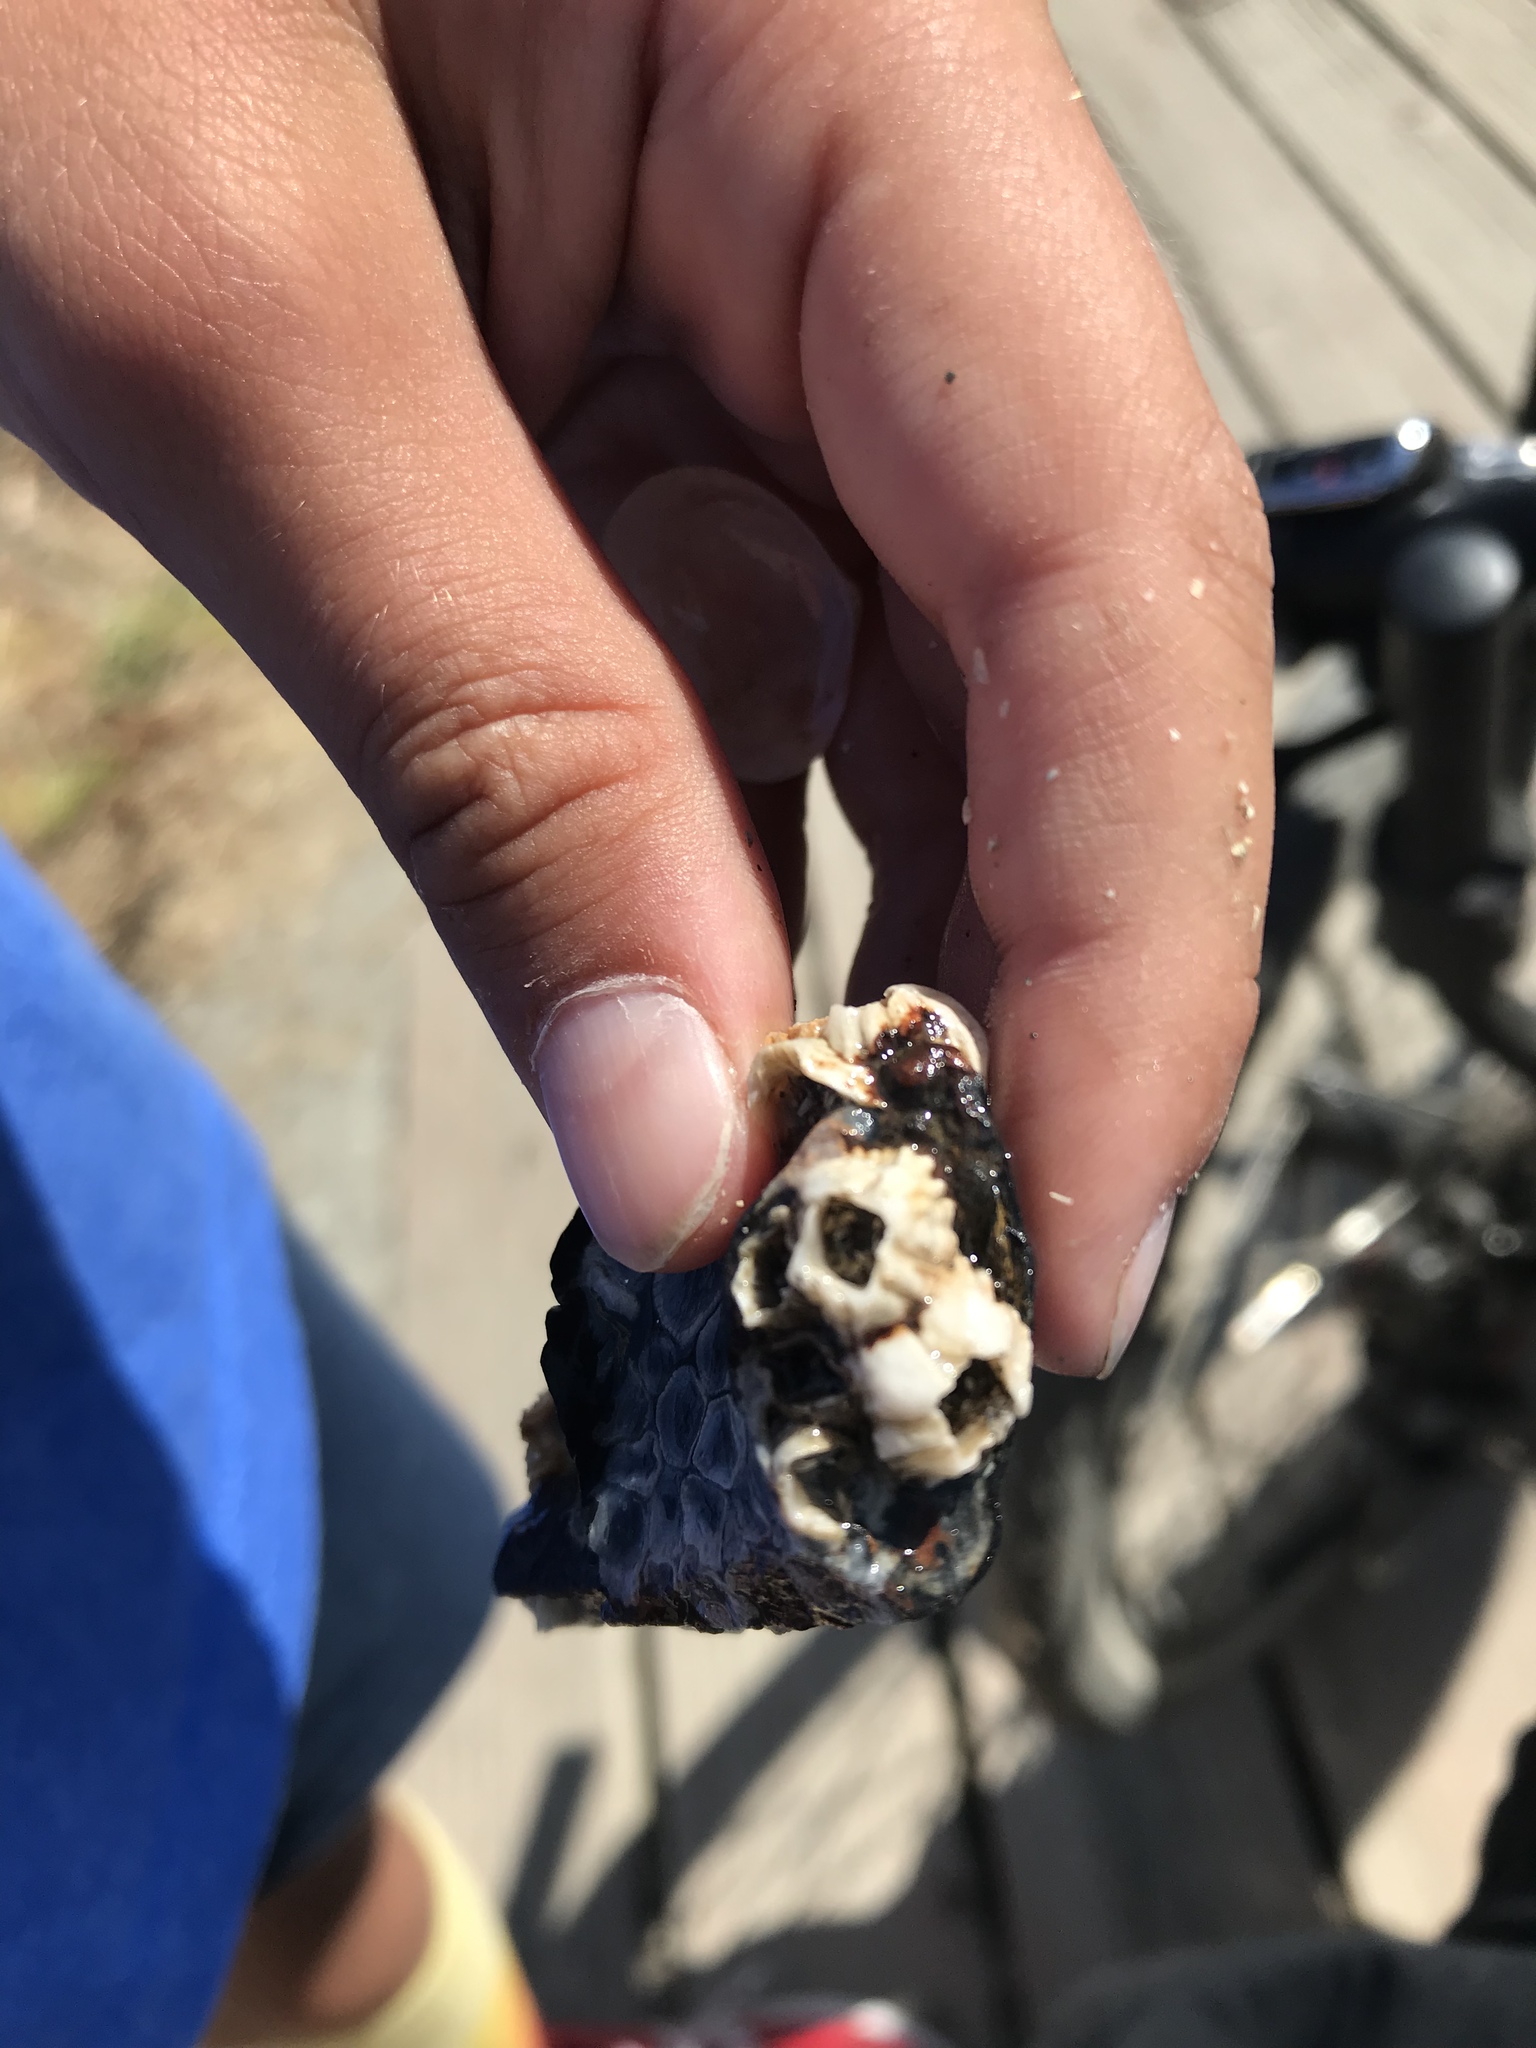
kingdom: Animalia
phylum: Arthropoda
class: Maxillopoda
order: Sessilia
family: Balanidae
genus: Balanus
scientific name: Balanus glandula
